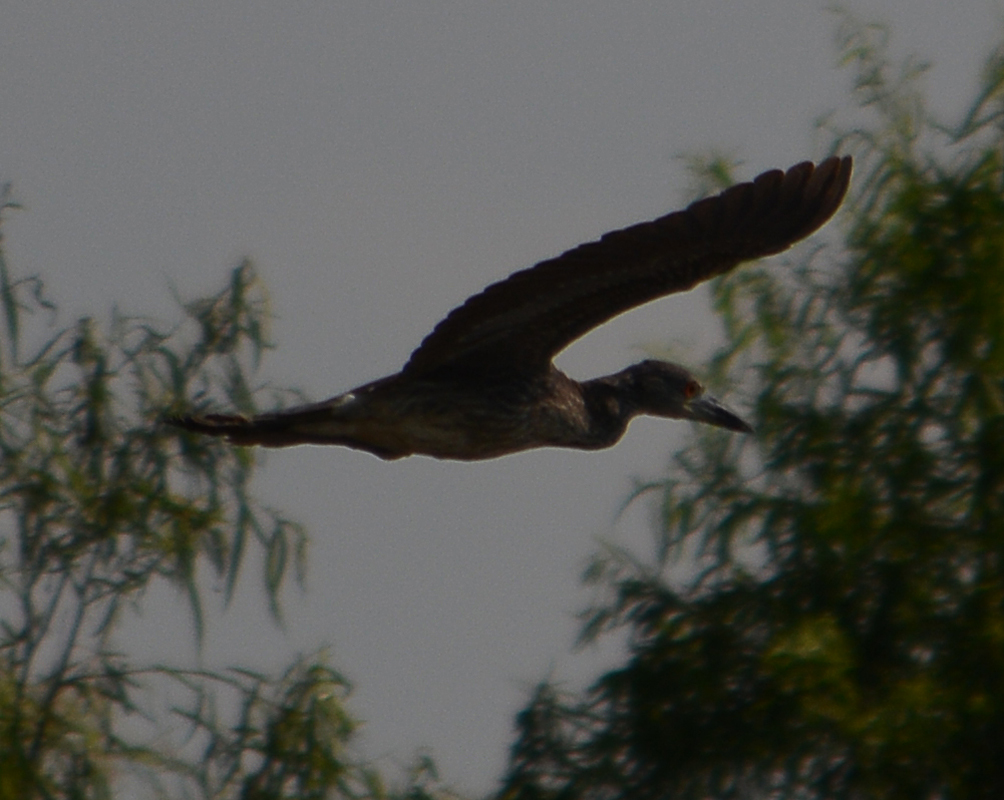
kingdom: Animalia
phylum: Chordata
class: Aves
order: Pelecaniformes
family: Ardeidae
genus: Nyctanassa
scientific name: Nyctanassa violacea
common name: Yellow-crowned night heron
